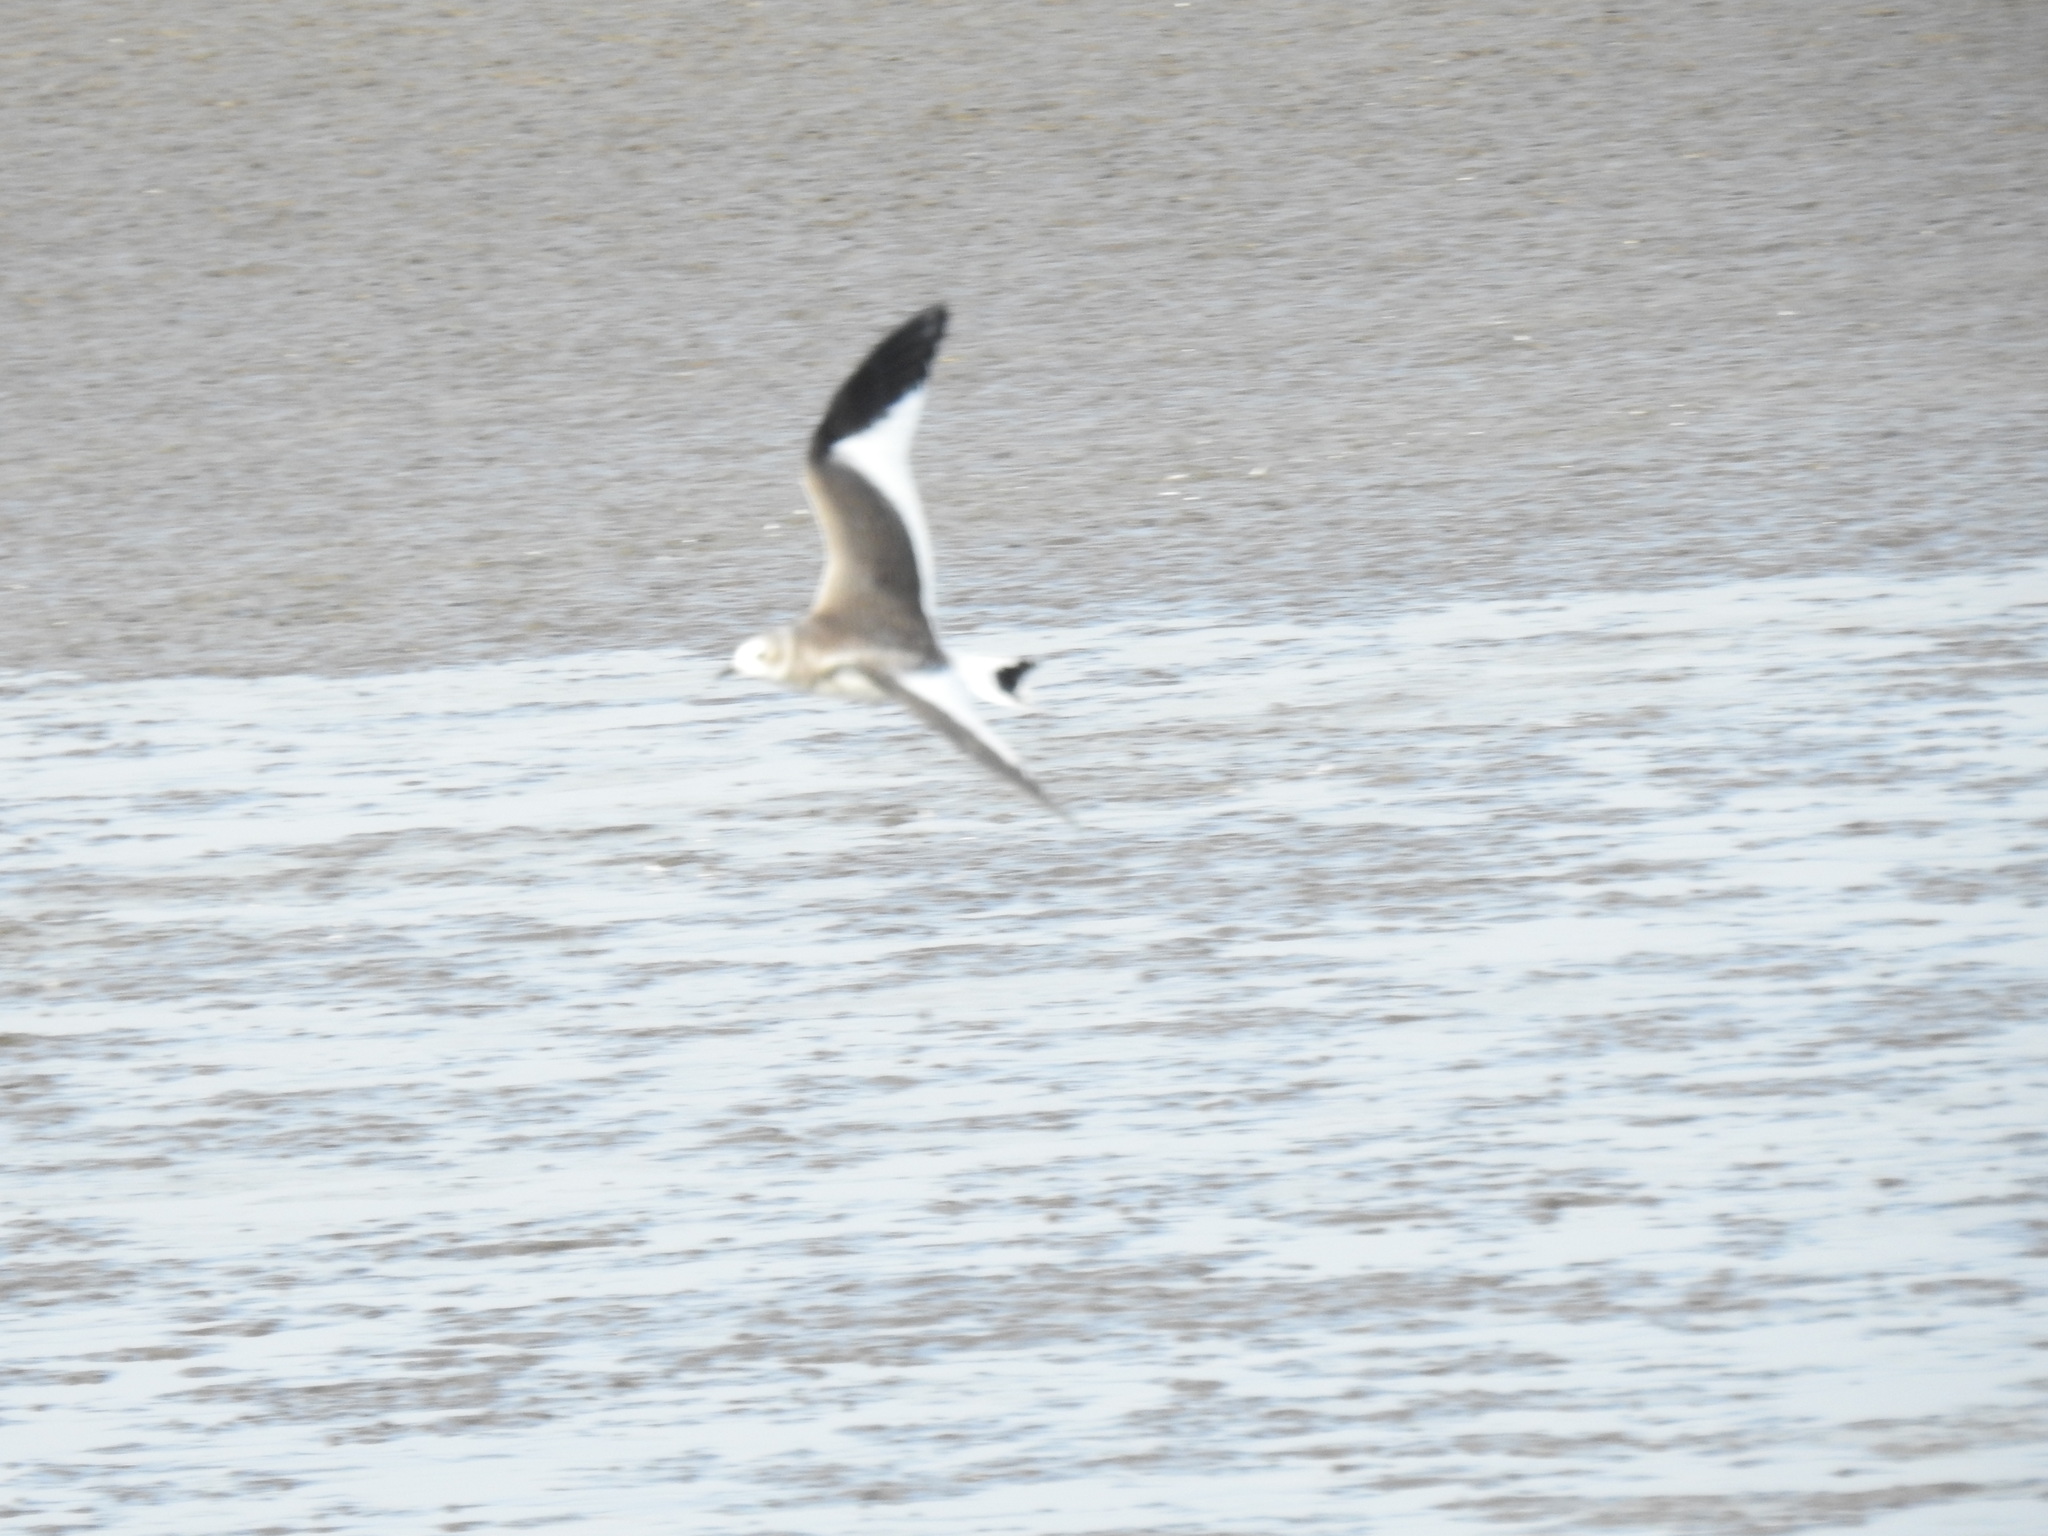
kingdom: Animalia
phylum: Chordata
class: Aves
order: Charadriiformes
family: Laridae
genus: Xema
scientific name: Xema sabini
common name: Sabine's gull
